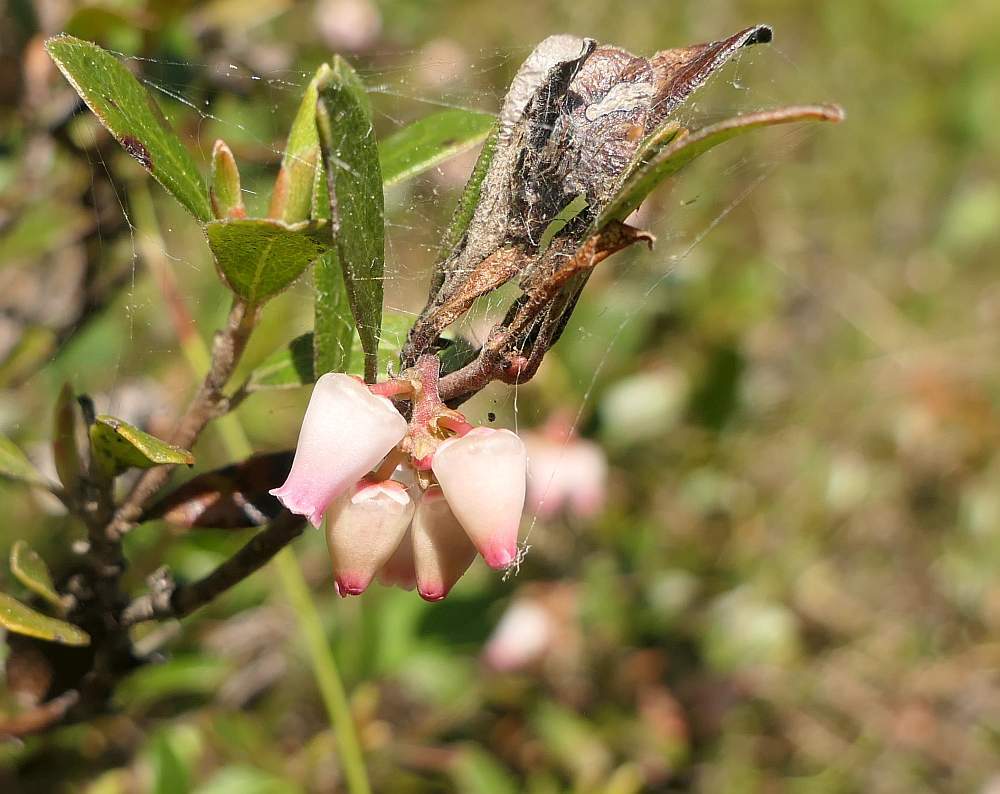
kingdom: Plantae
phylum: Tracheophyta
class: Magnoliopsida
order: Ericales
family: Ericaceae
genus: Arctostaphylos
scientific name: Arctostaphylos uva-ursi
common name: Bearberry
